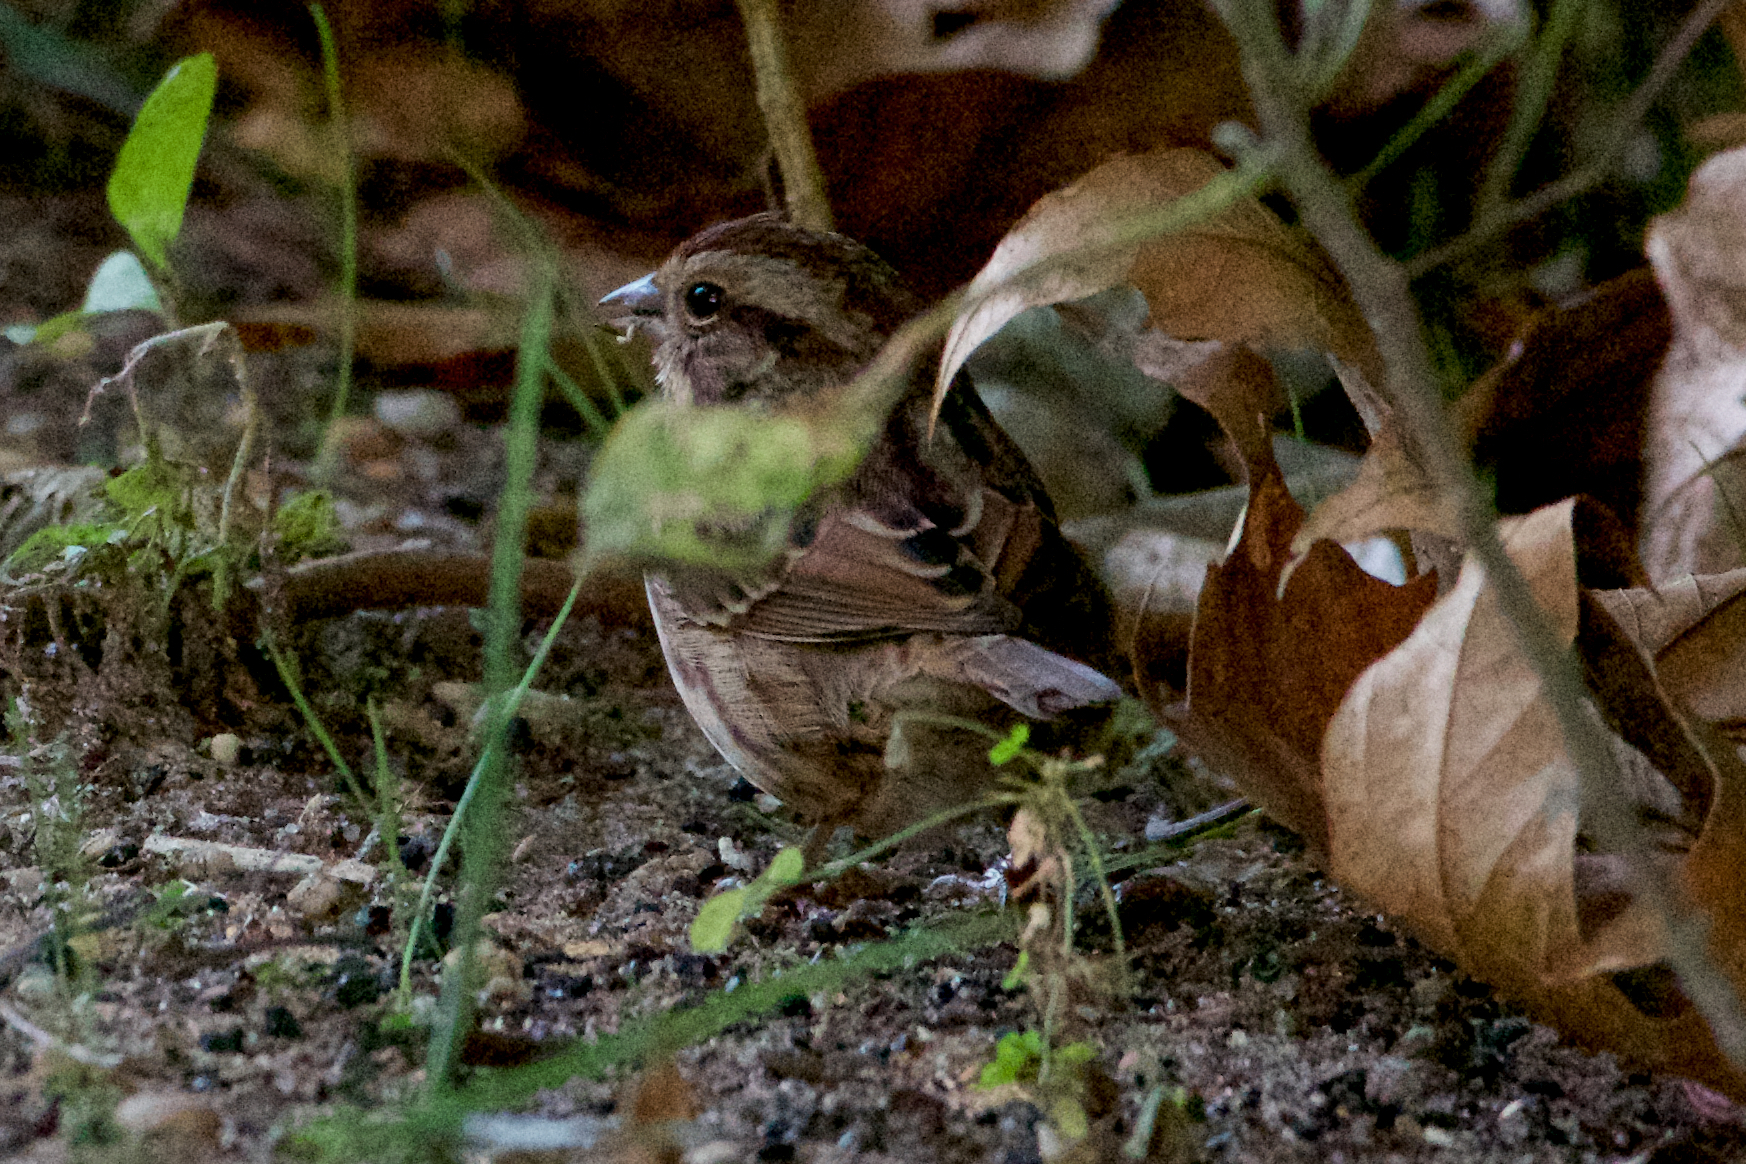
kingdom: Animalia
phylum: Chordata
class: Aves
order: Passeriformes
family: Passerellidae
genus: Melospiza
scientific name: Melospiza melodia
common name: Song sparrow
